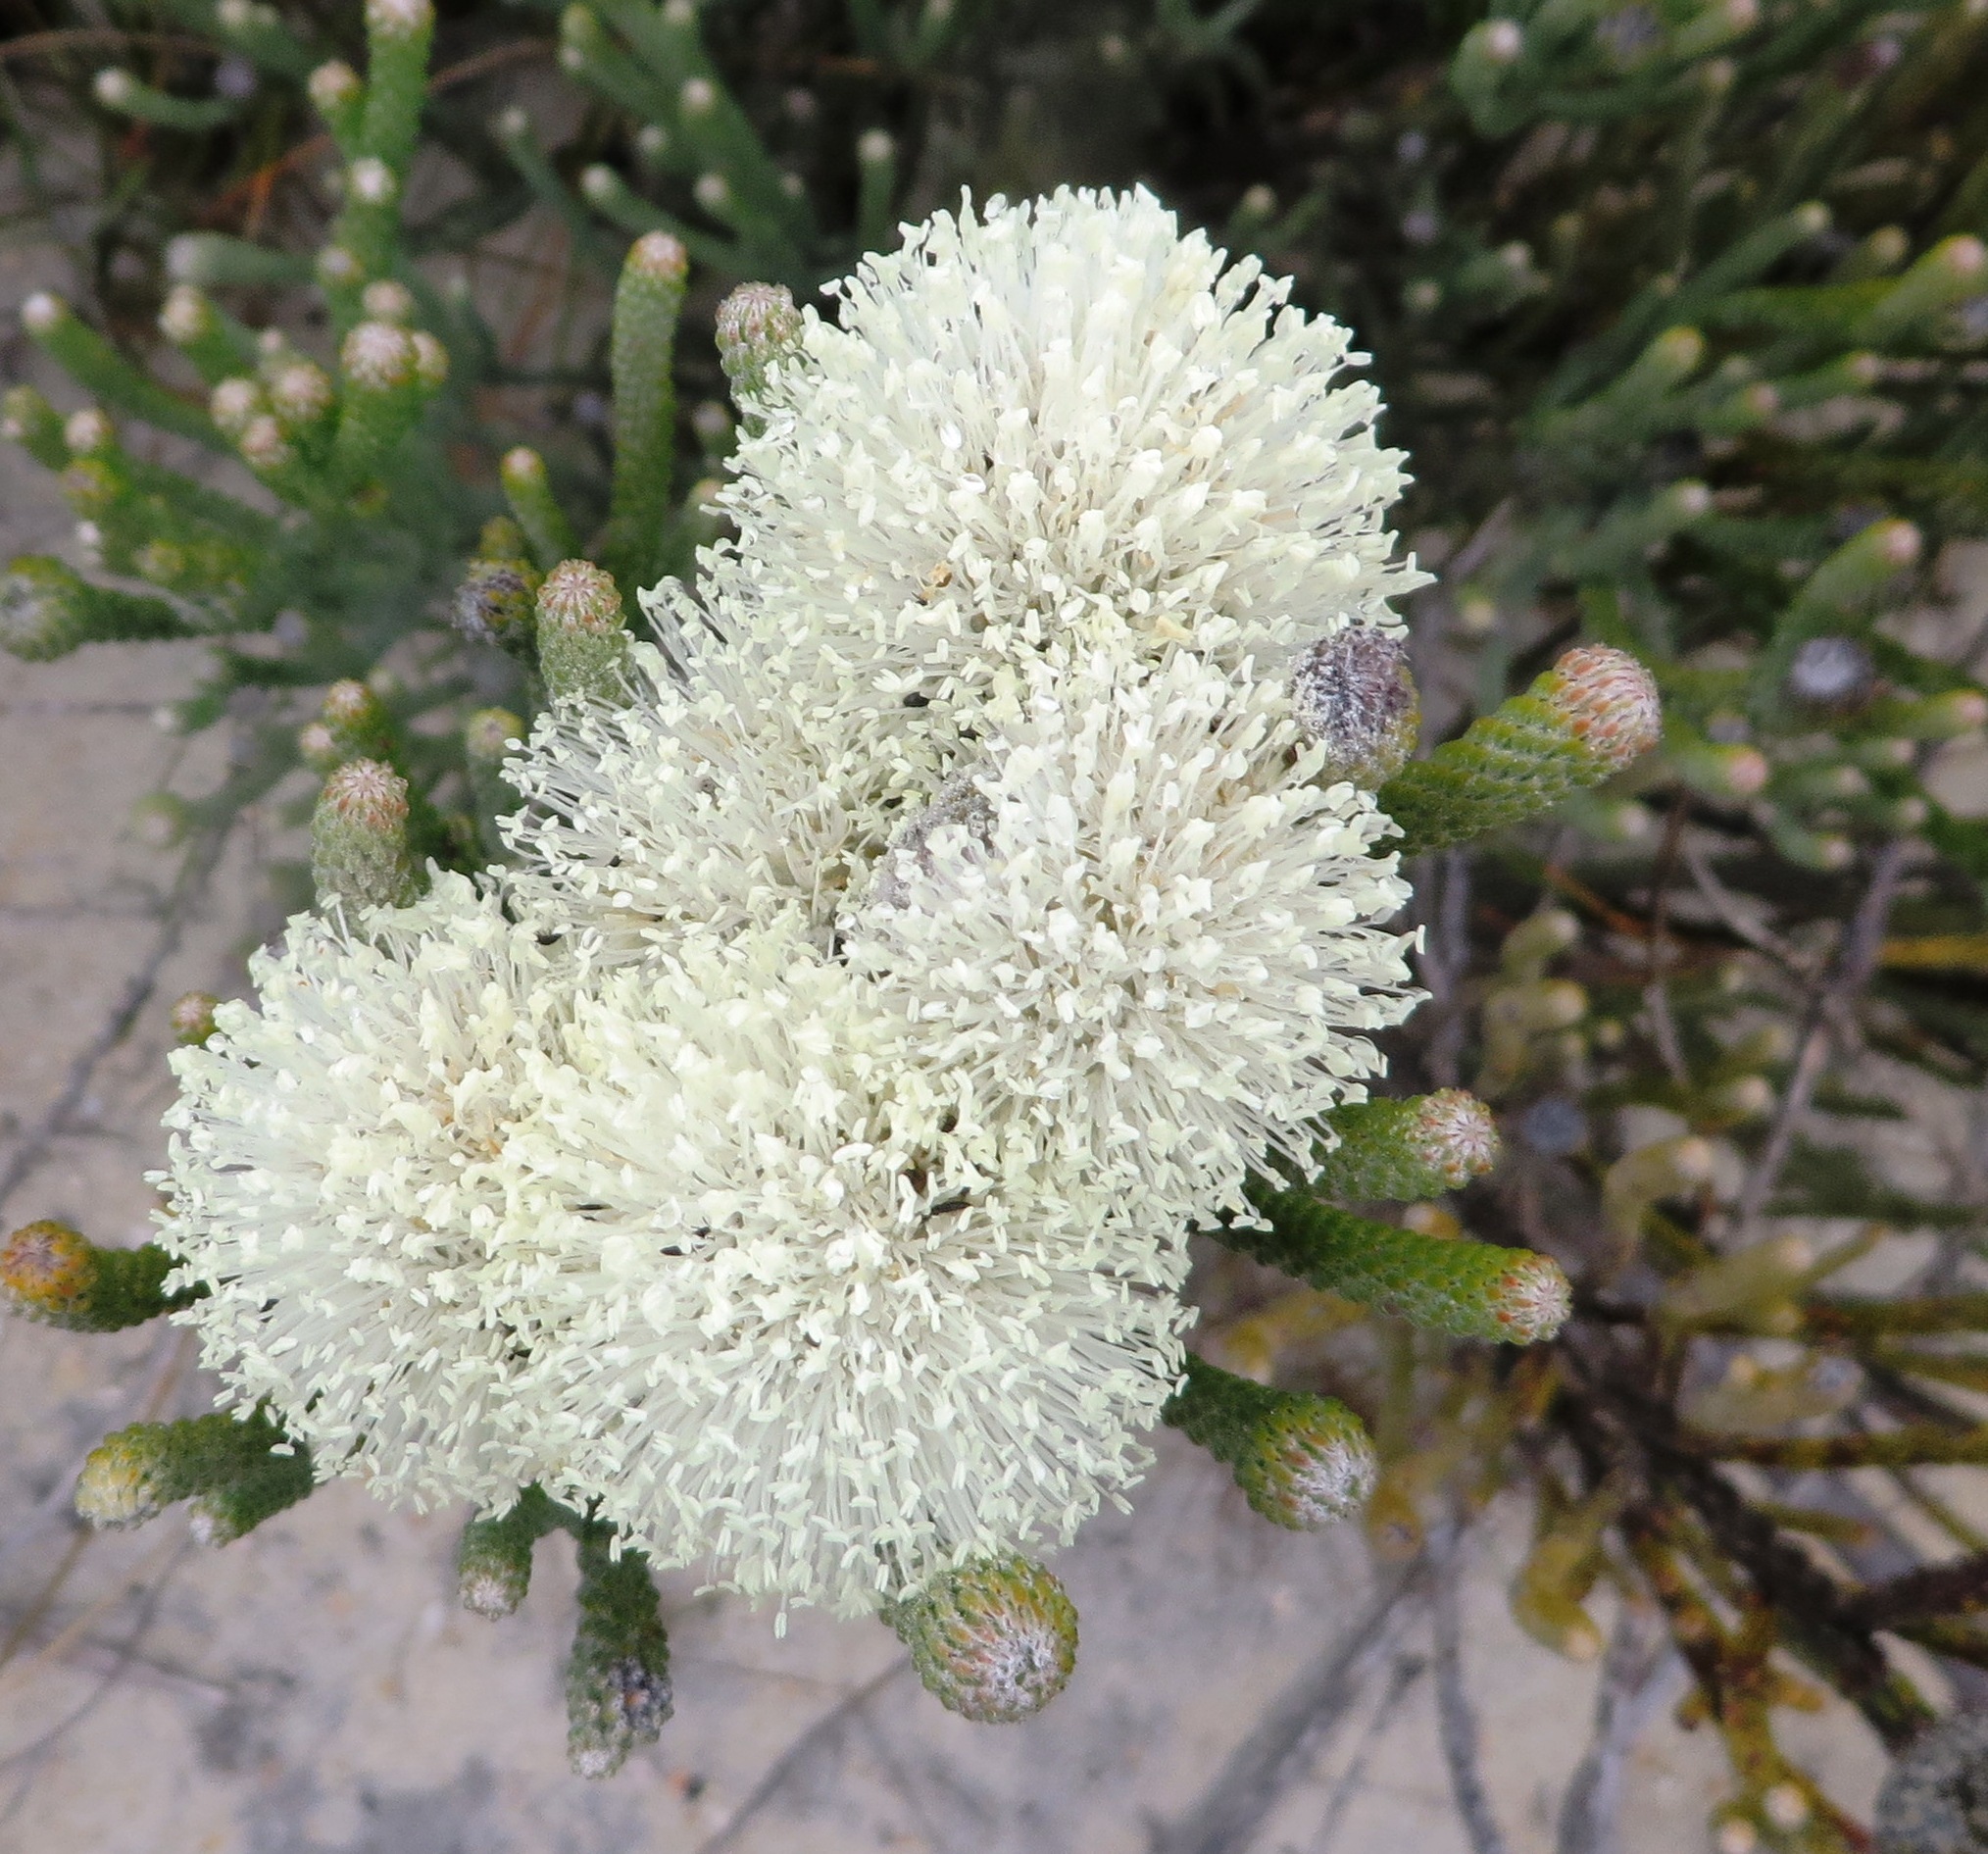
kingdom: Plantae
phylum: Tracheophyta
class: Magnoliopsida
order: Bruniales
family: Bruniaceae
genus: Brunia
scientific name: Brunia laevis
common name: Silver brunia
